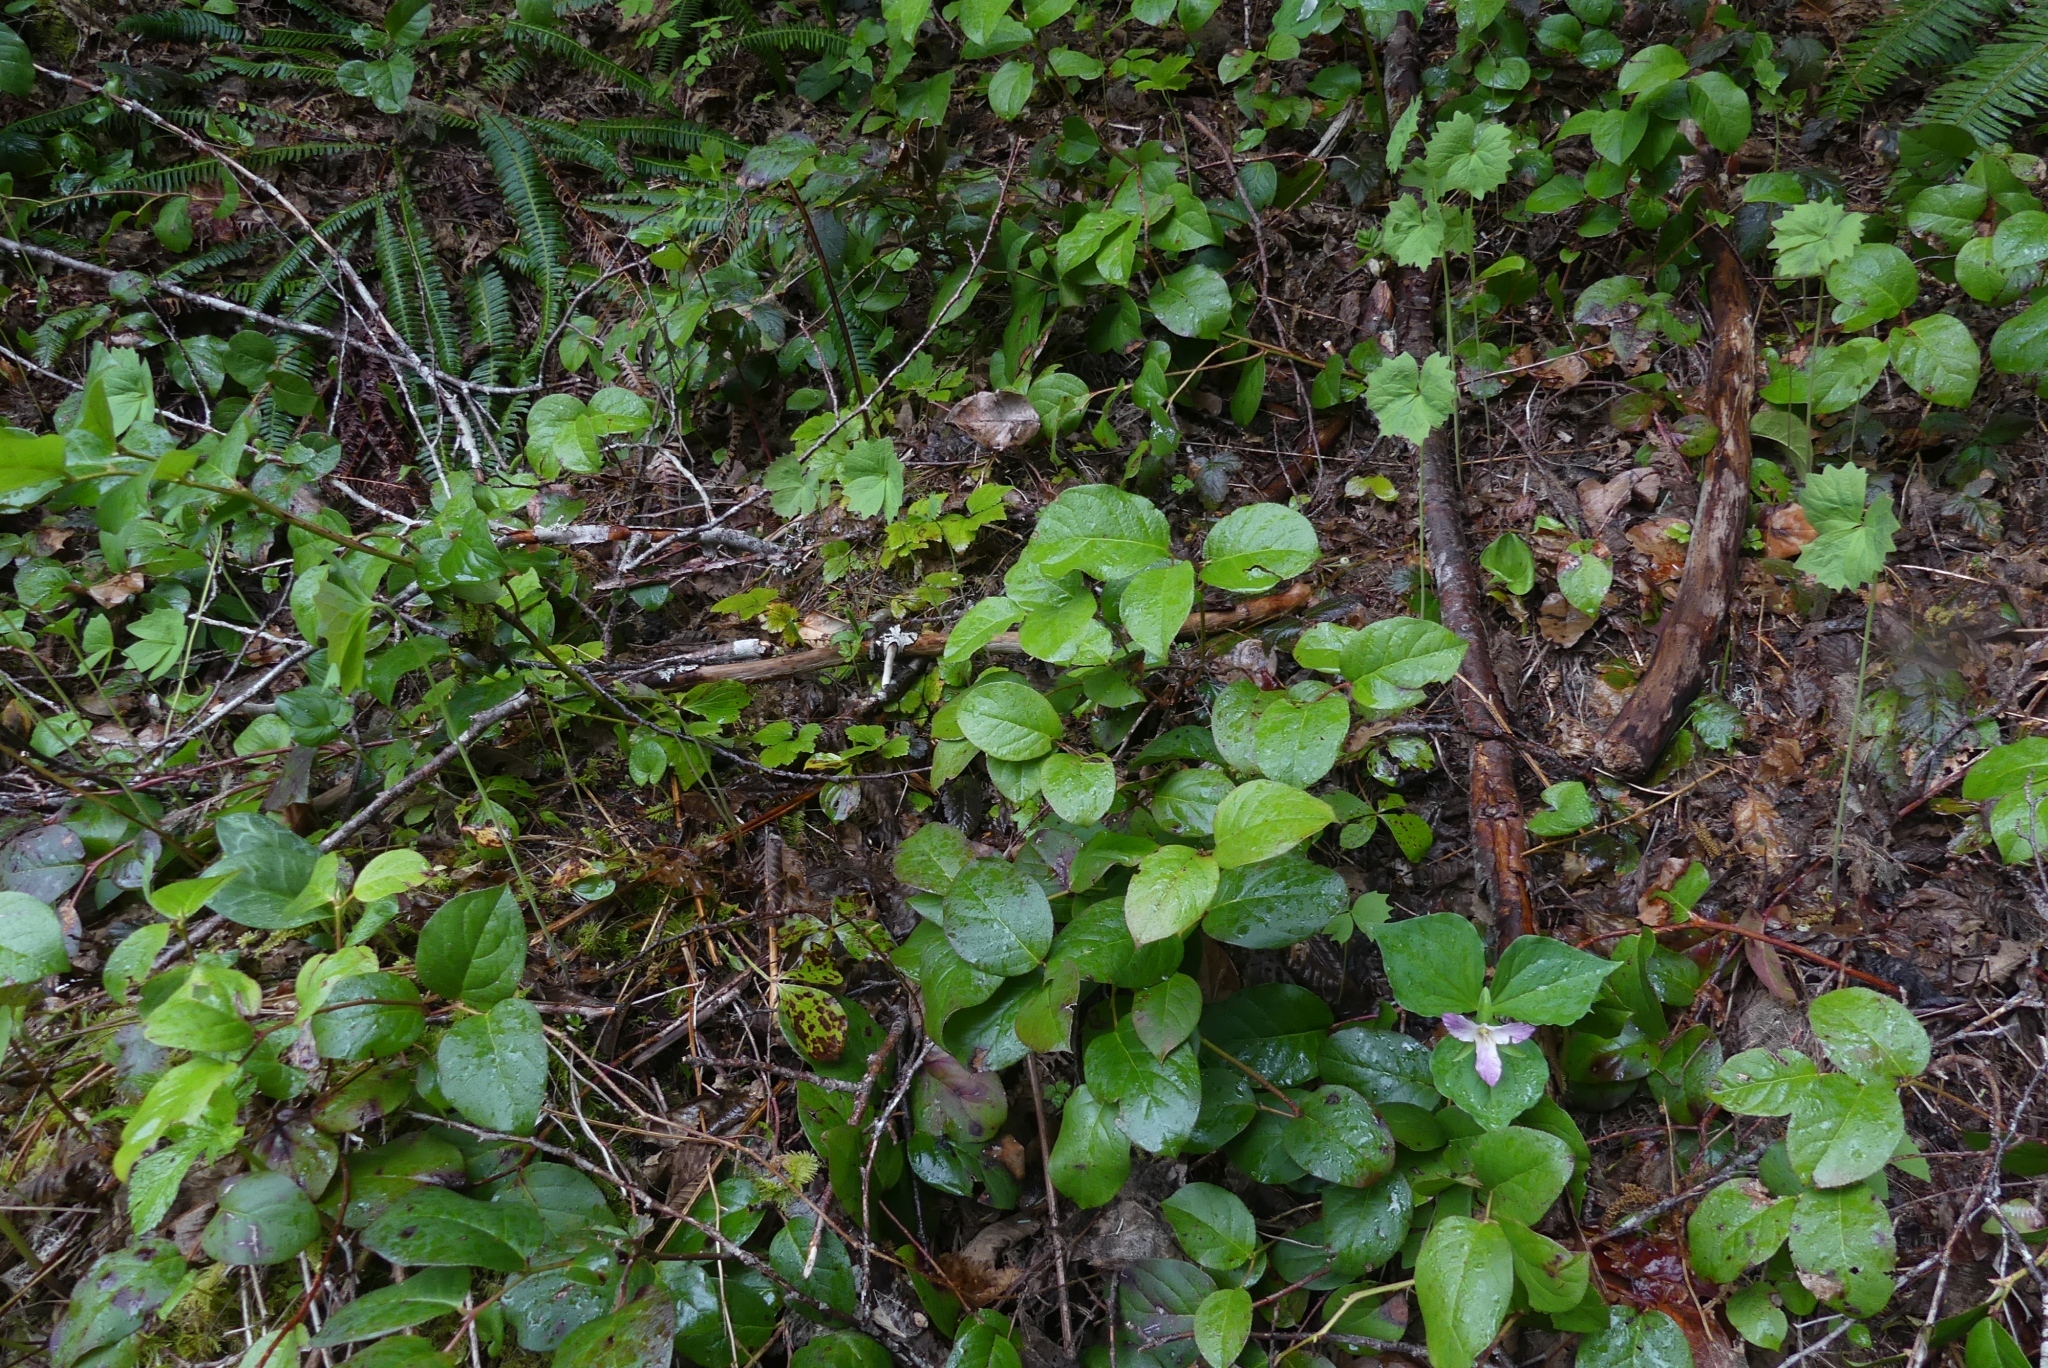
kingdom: Plantae
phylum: Tracheophyta
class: Magnoliopsida
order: Ericales
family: Ericaceae
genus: Gaultheria
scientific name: Gaultheria shallon
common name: Shallon
